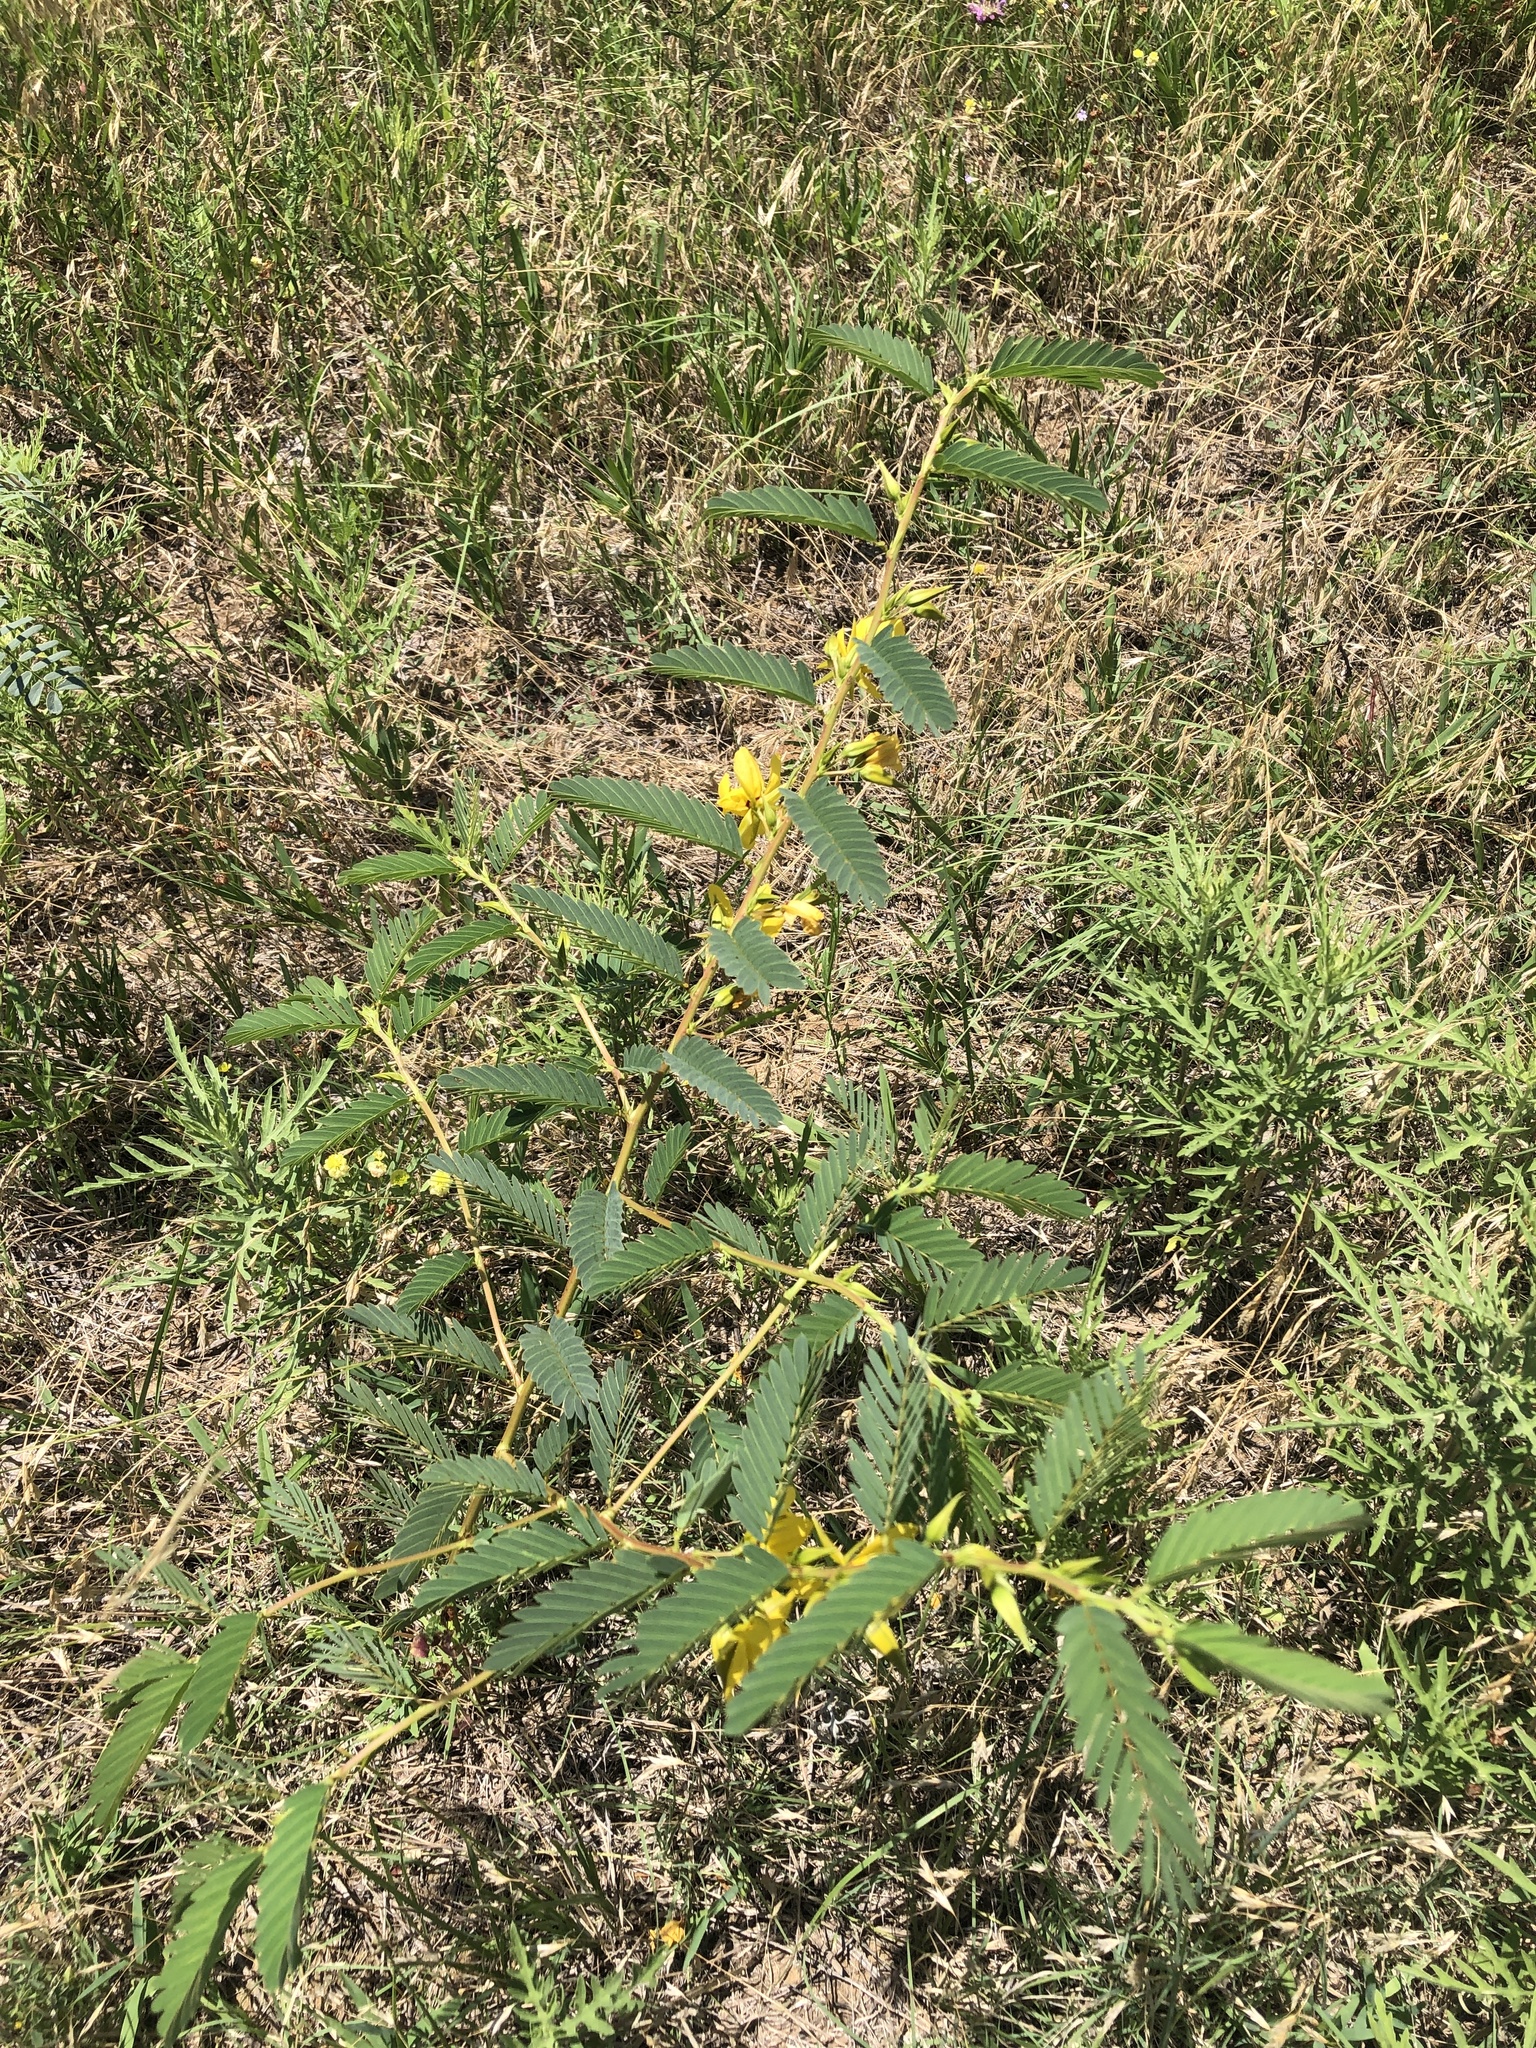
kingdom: Plantae
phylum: Tracheophyta
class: Magnoliopsida
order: Fabales
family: Fabaceae
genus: Chamaecrista
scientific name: Chamaecrista fasciculata
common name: Golden cassia
